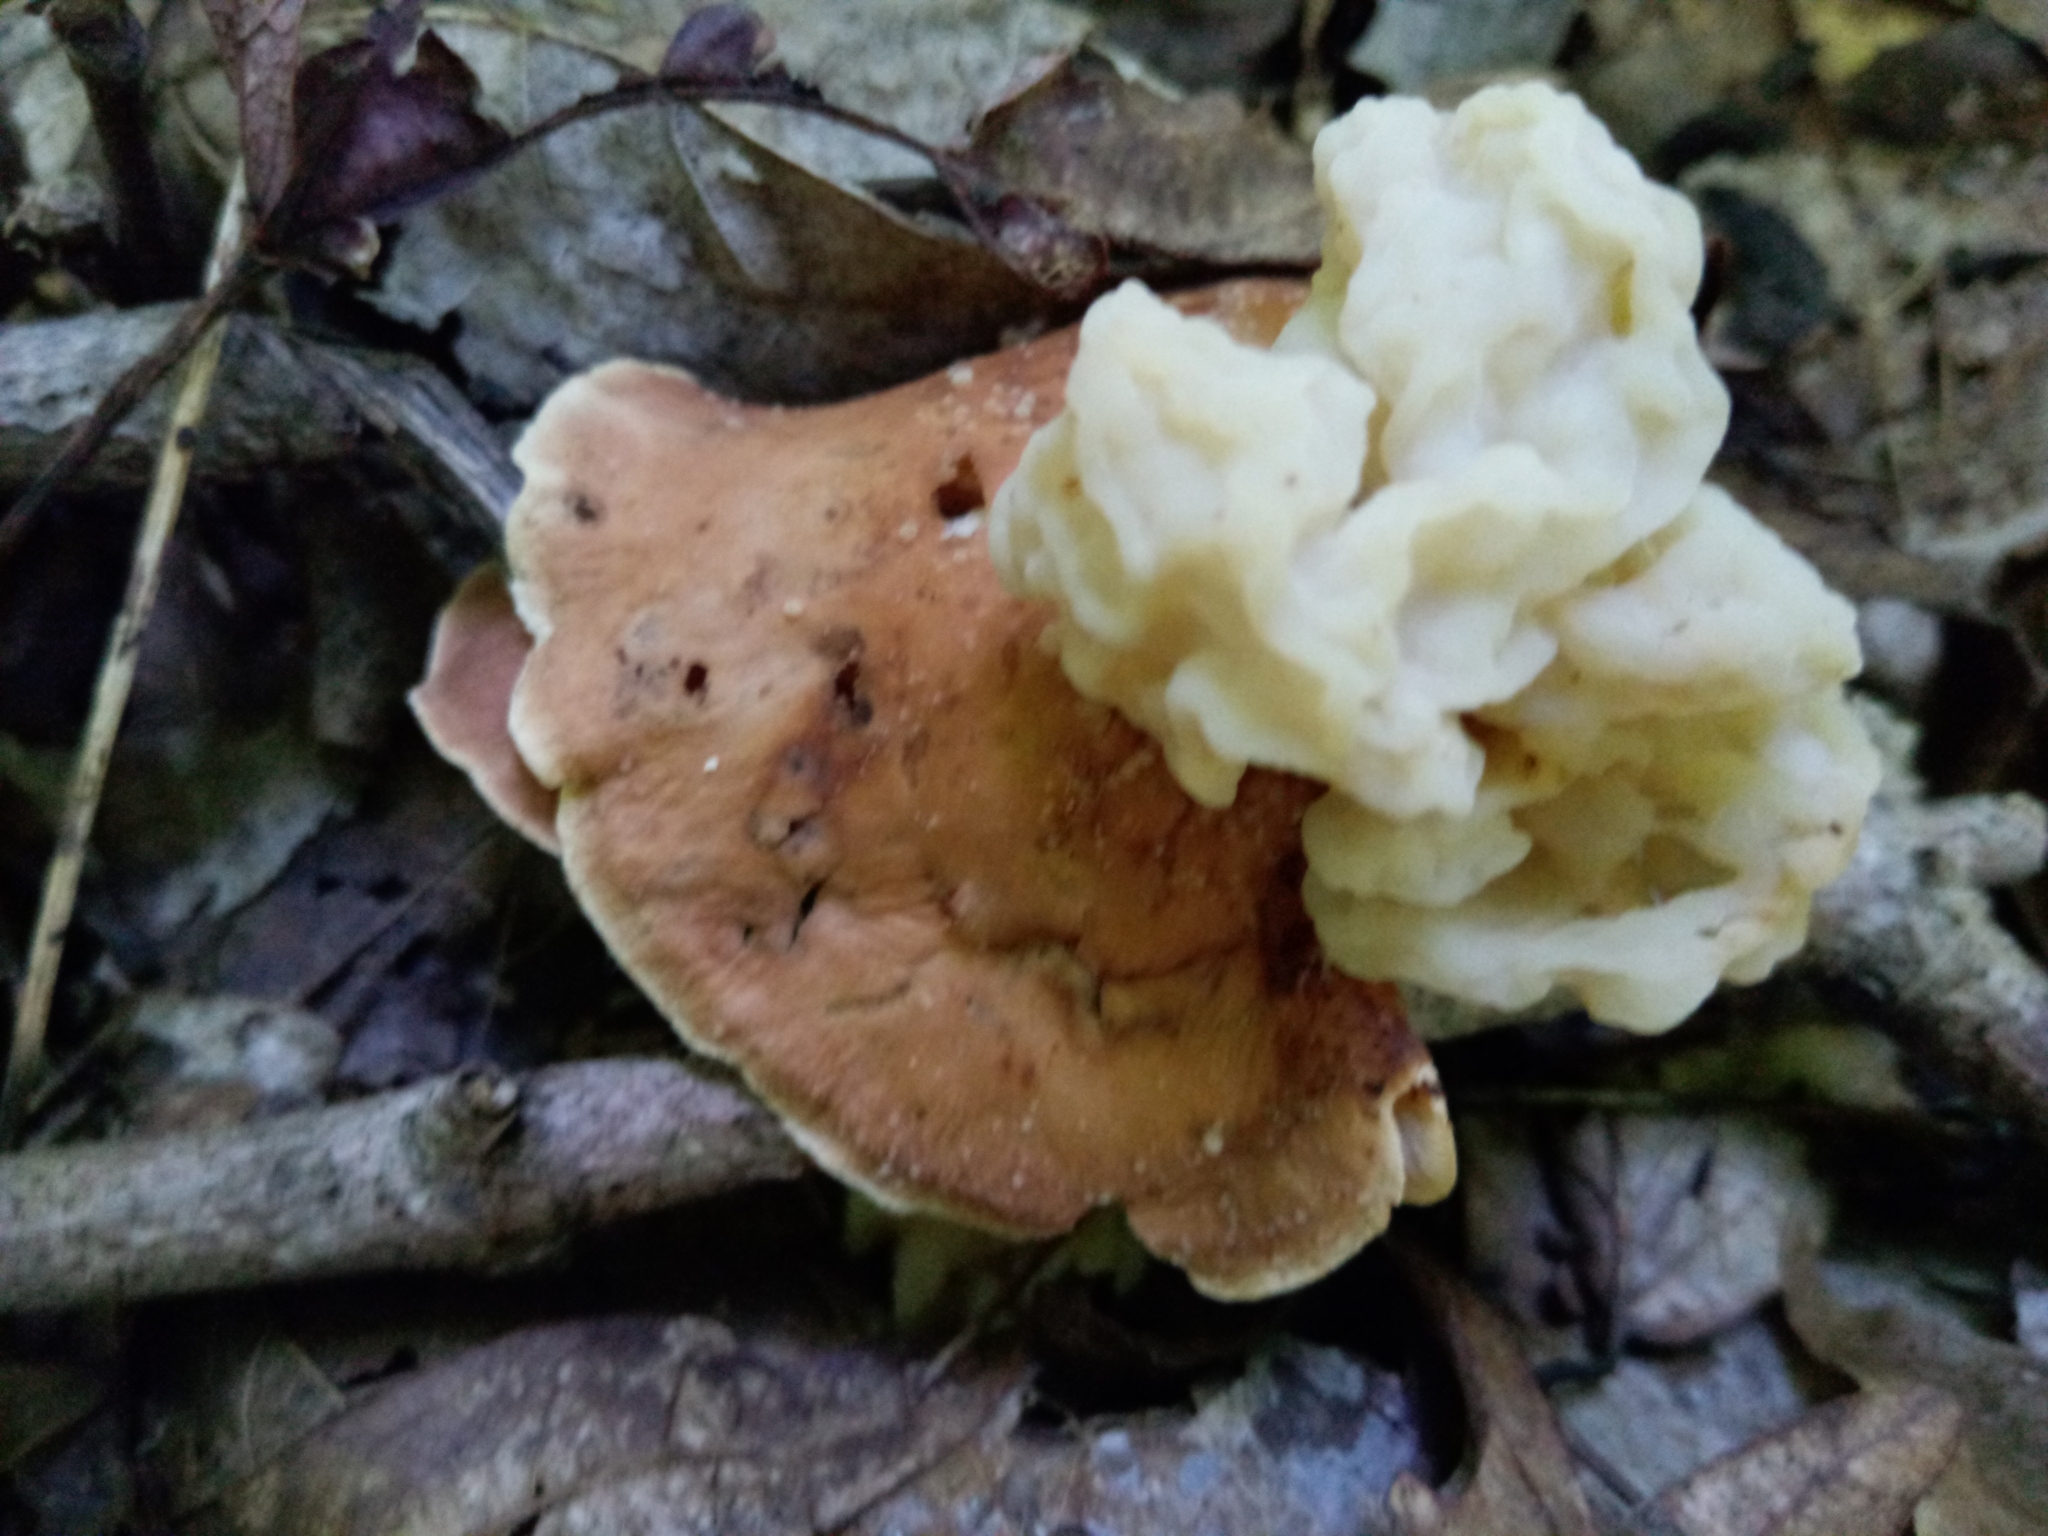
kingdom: Fungi
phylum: Basidiomycota
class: Tremellomycetes
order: Filobasidiales
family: Filobasidiaceae
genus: Syzygospora
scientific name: Syzygospora mycetophila
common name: Collybia clouds
